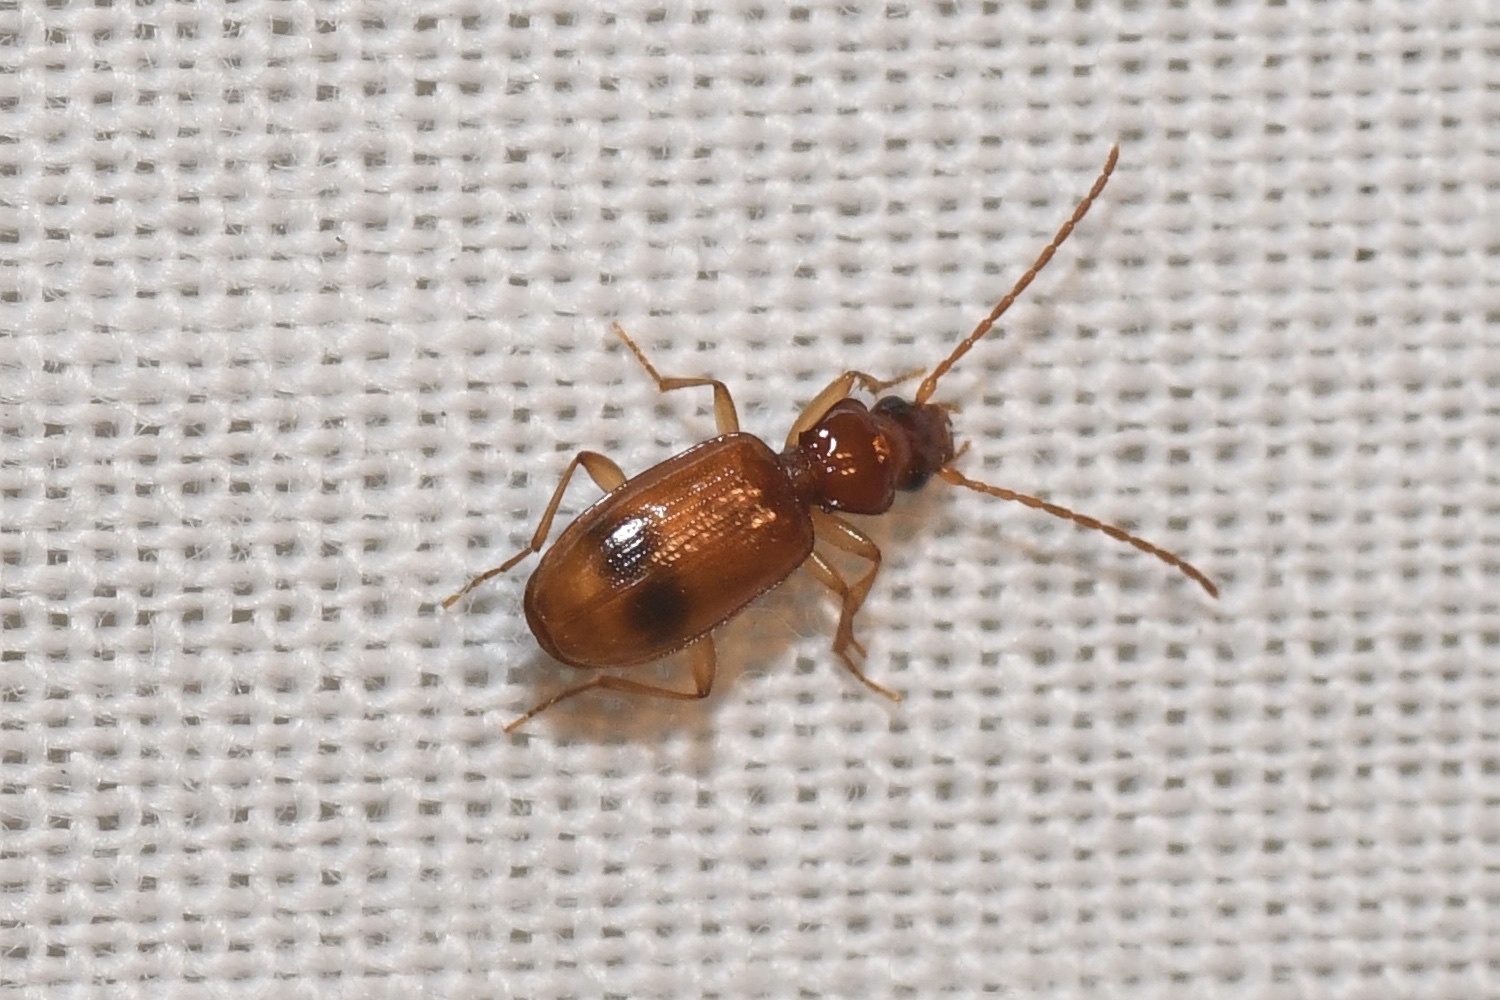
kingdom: Animalia
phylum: Arthropoda
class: Insecta
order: Coleoptera
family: Carabidae
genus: Blemus
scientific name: Blemus discus
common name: Discus riverbank ground beetle
